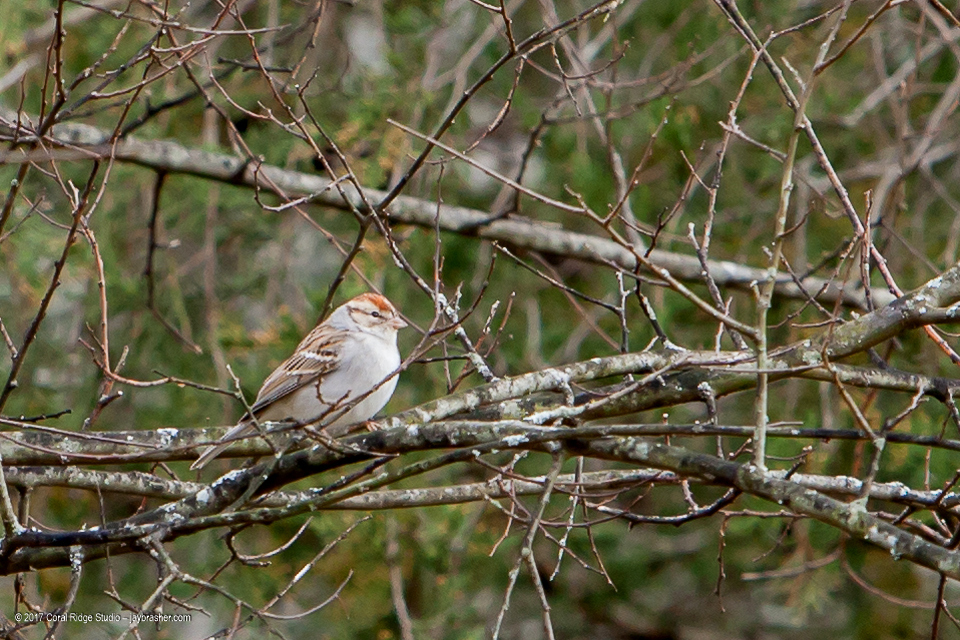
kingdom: Animalia
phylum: Chordata
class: Aves
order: Passeriformes
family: Passerellidae
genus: Spizella
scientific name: Spizella passerina
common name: Chipping sparrow
